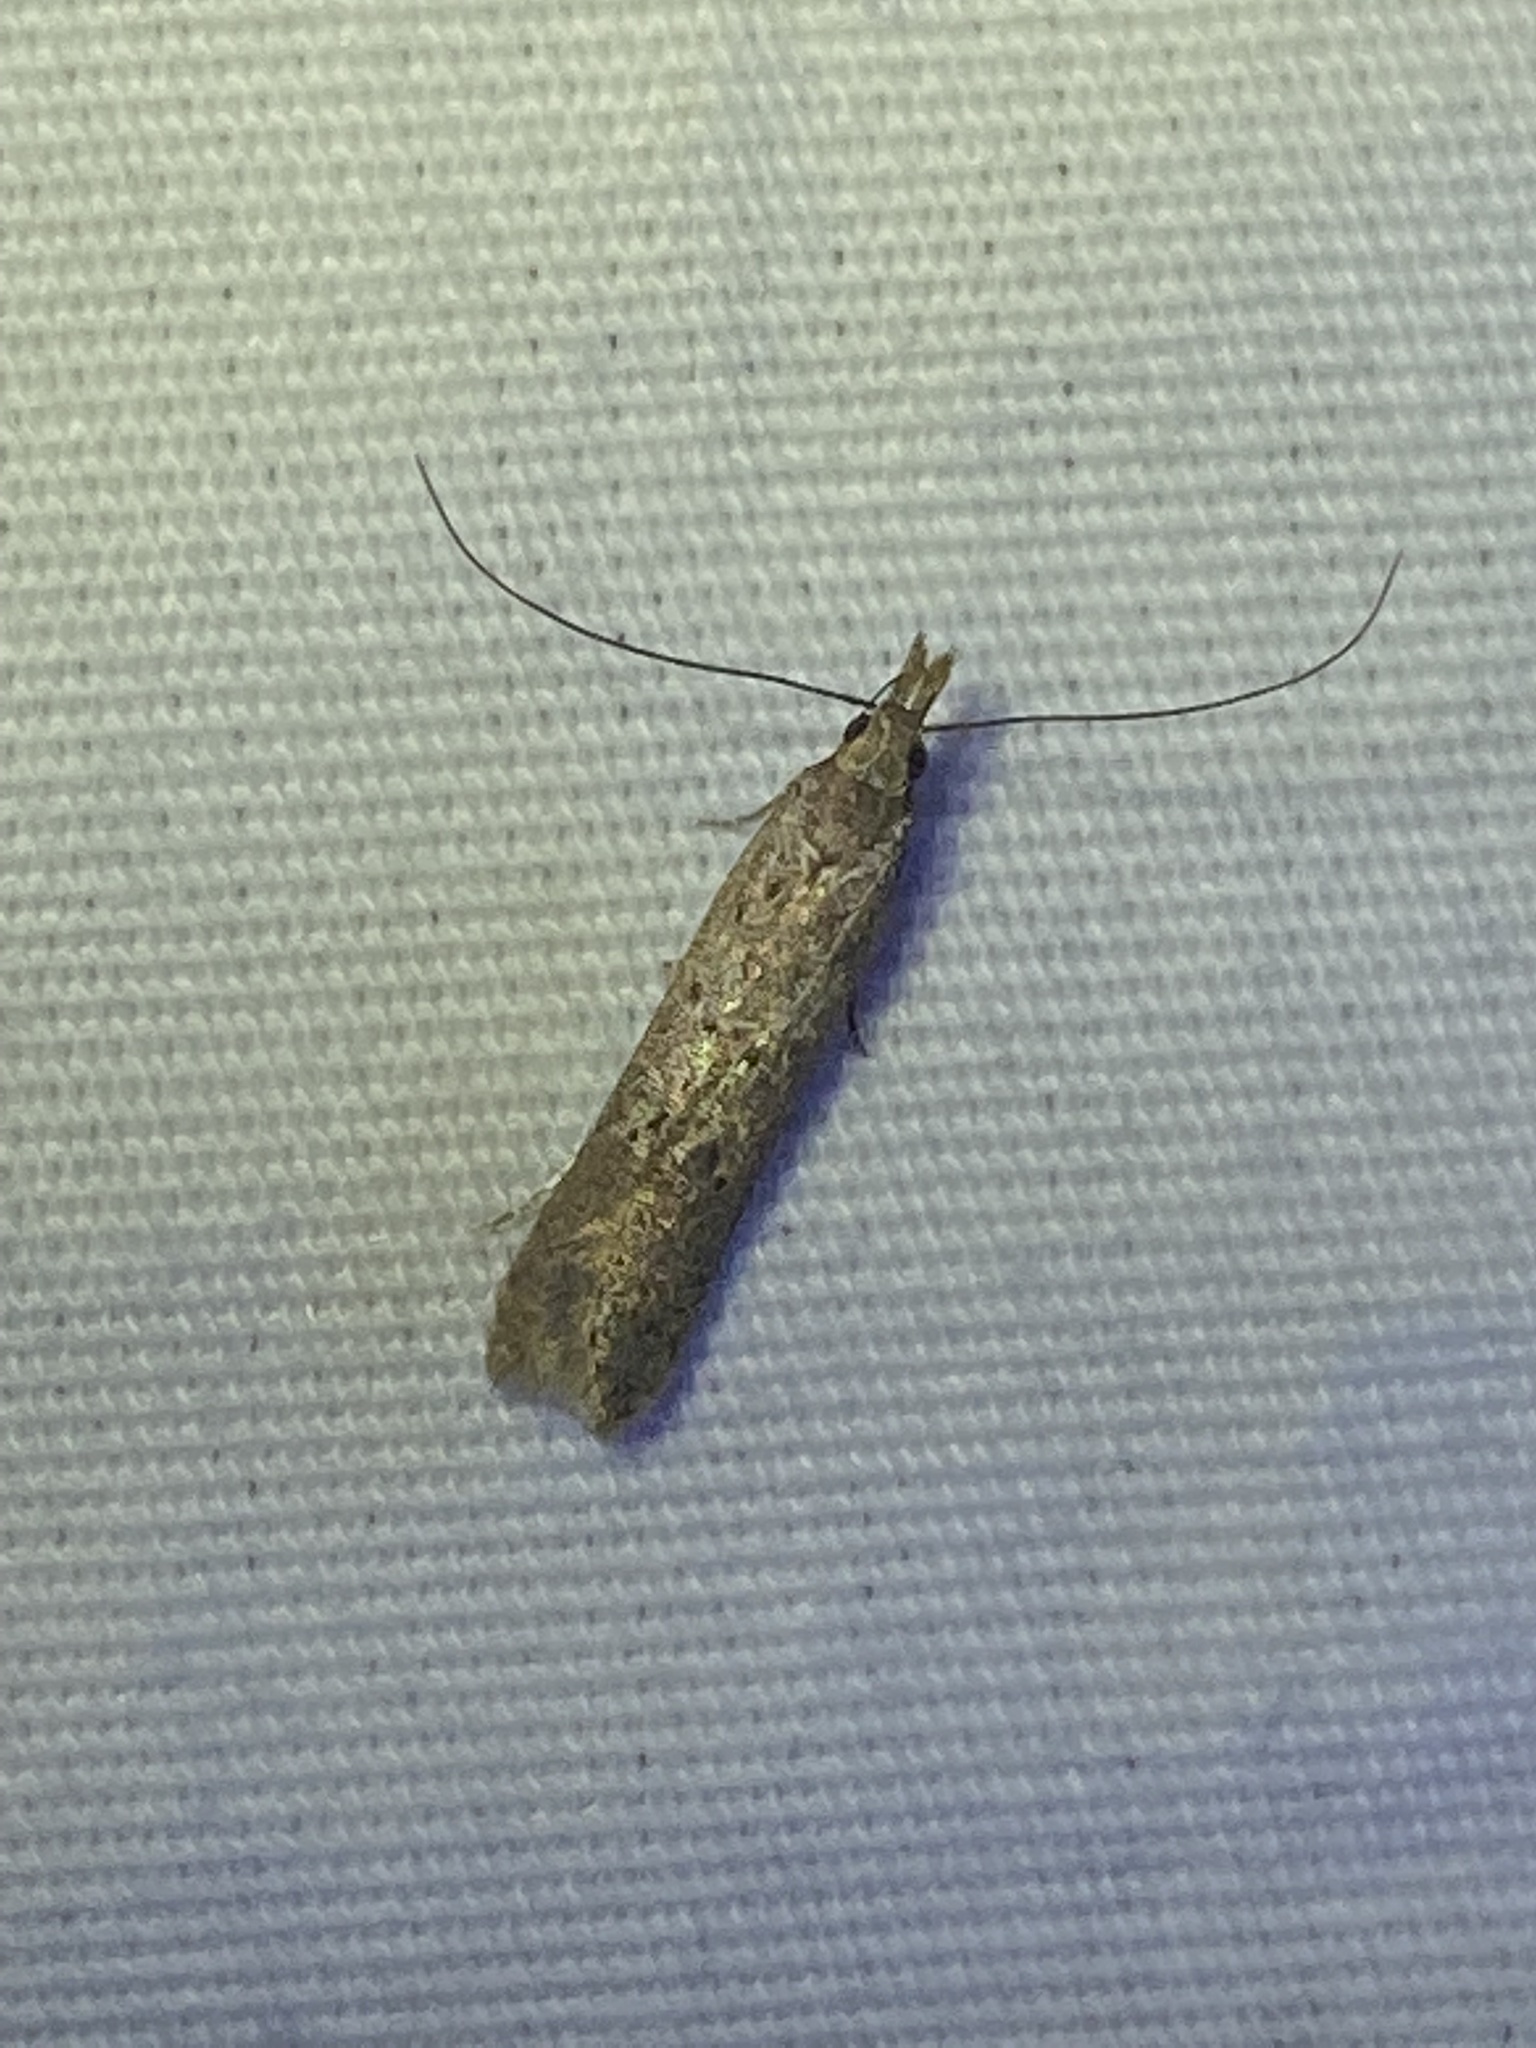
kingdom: Animalia
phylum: Arthropoda
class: Insecta
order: Lepidoptera
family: Gelechiidae
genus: Dichomeris
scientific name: Dichomeris ligulella
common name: Moth
